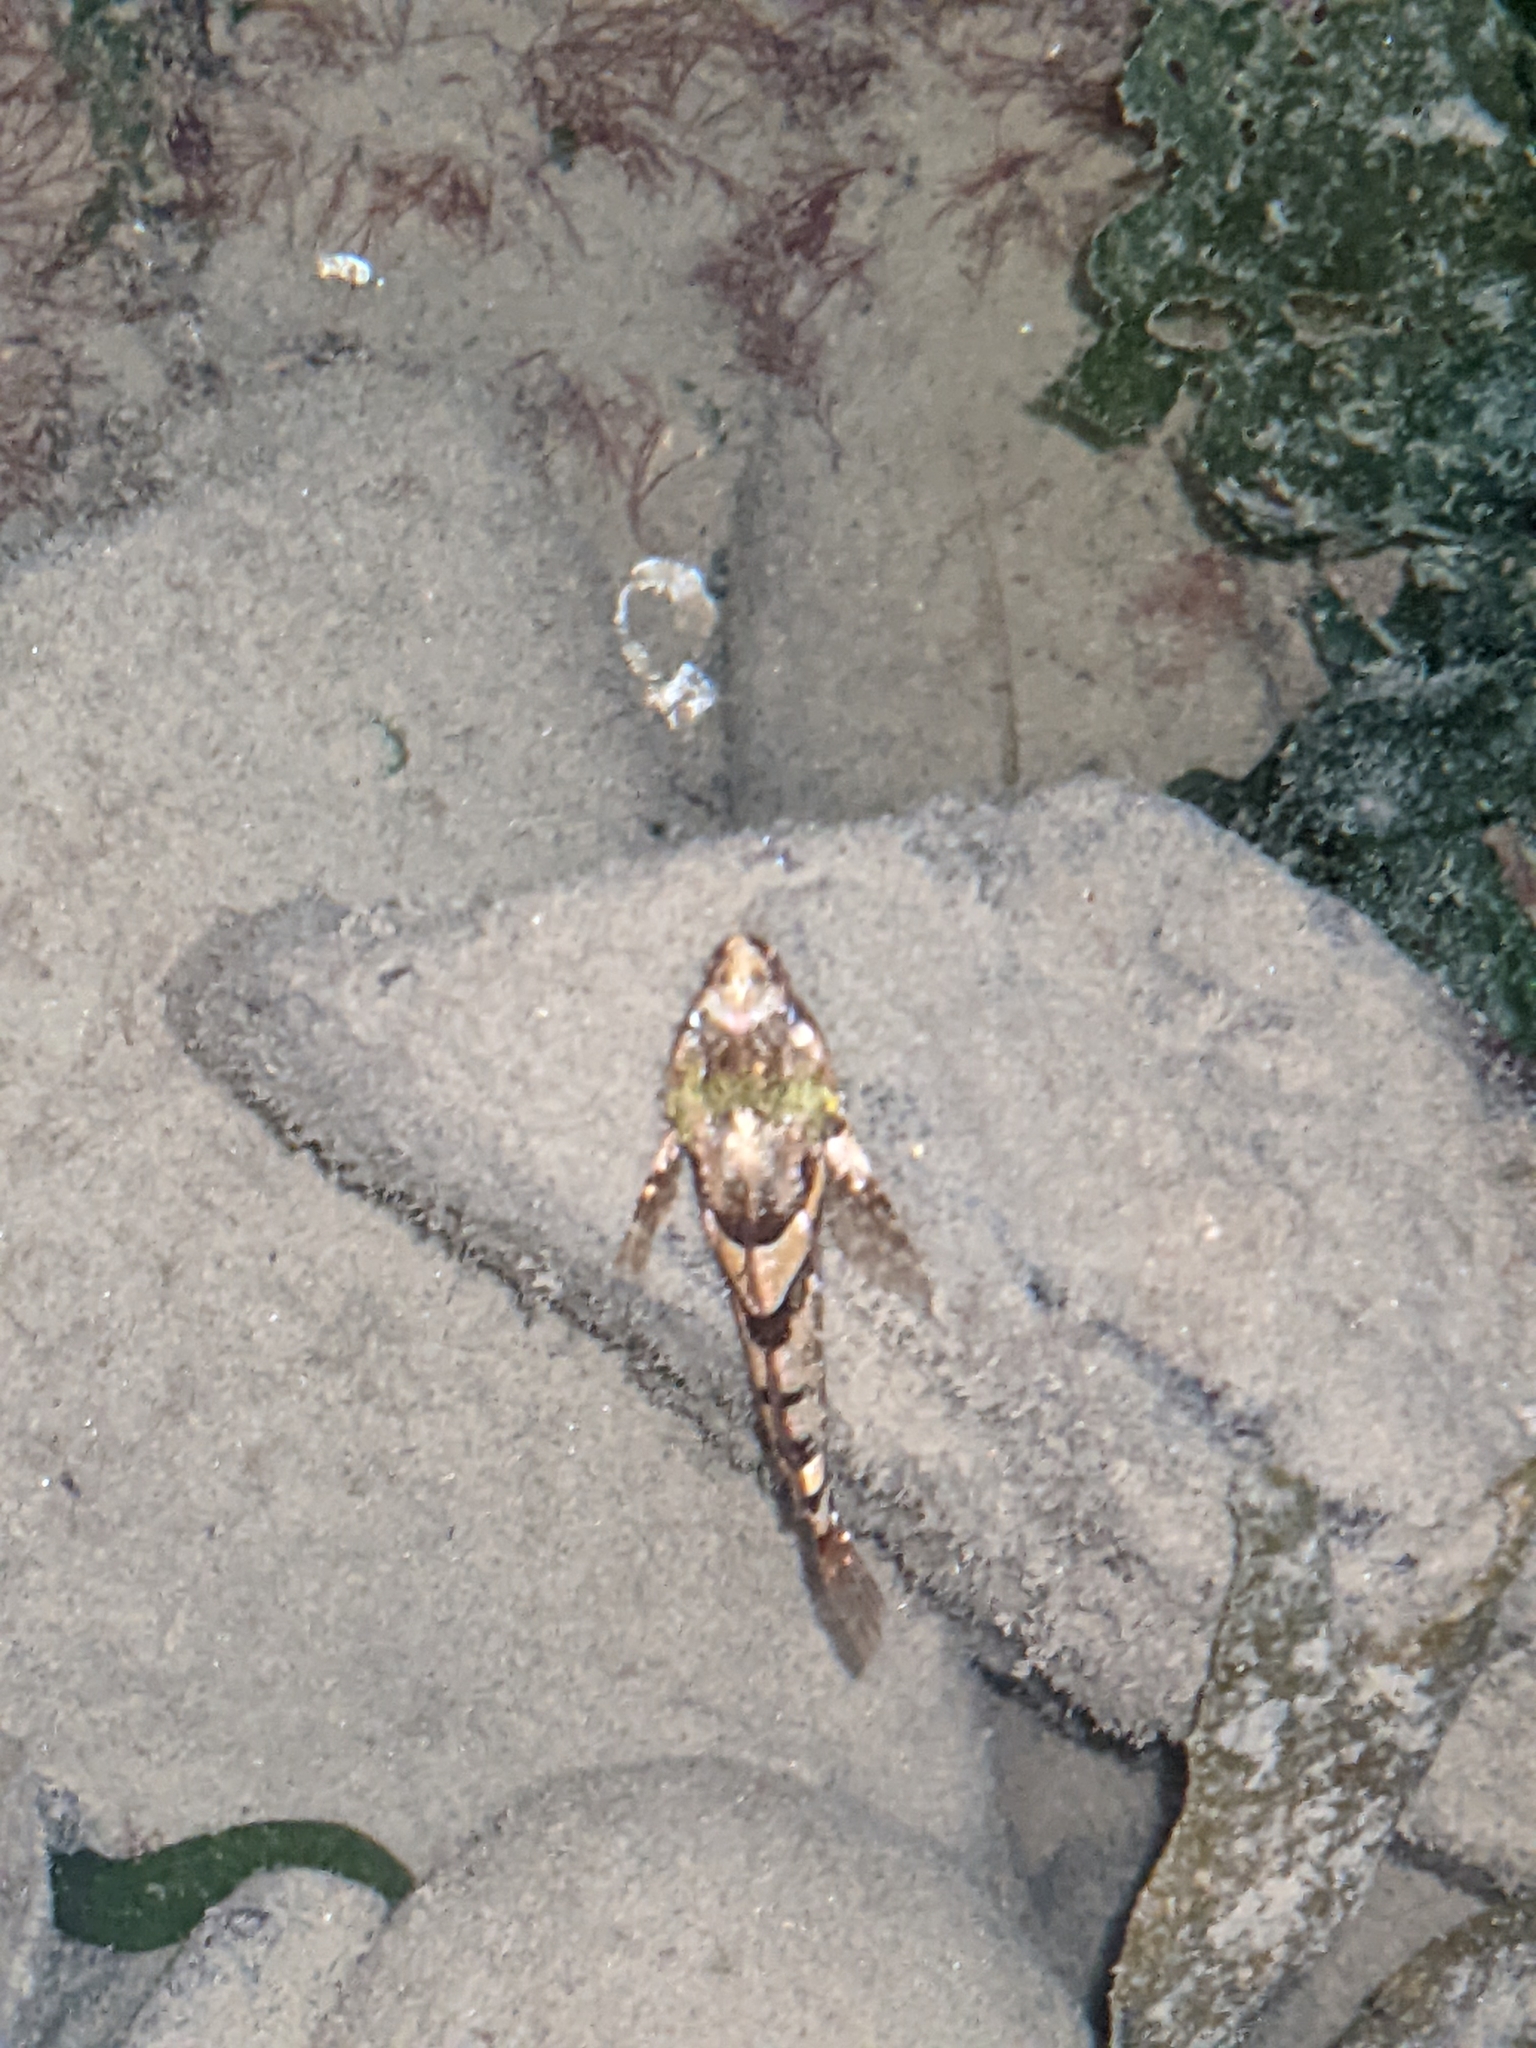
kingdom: Animalia
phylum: Chordata
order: Scorpaeniformes
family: Cottidae
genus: Oligocottus
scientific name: Oligocottus maculosus
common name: Tidepool sculpin
